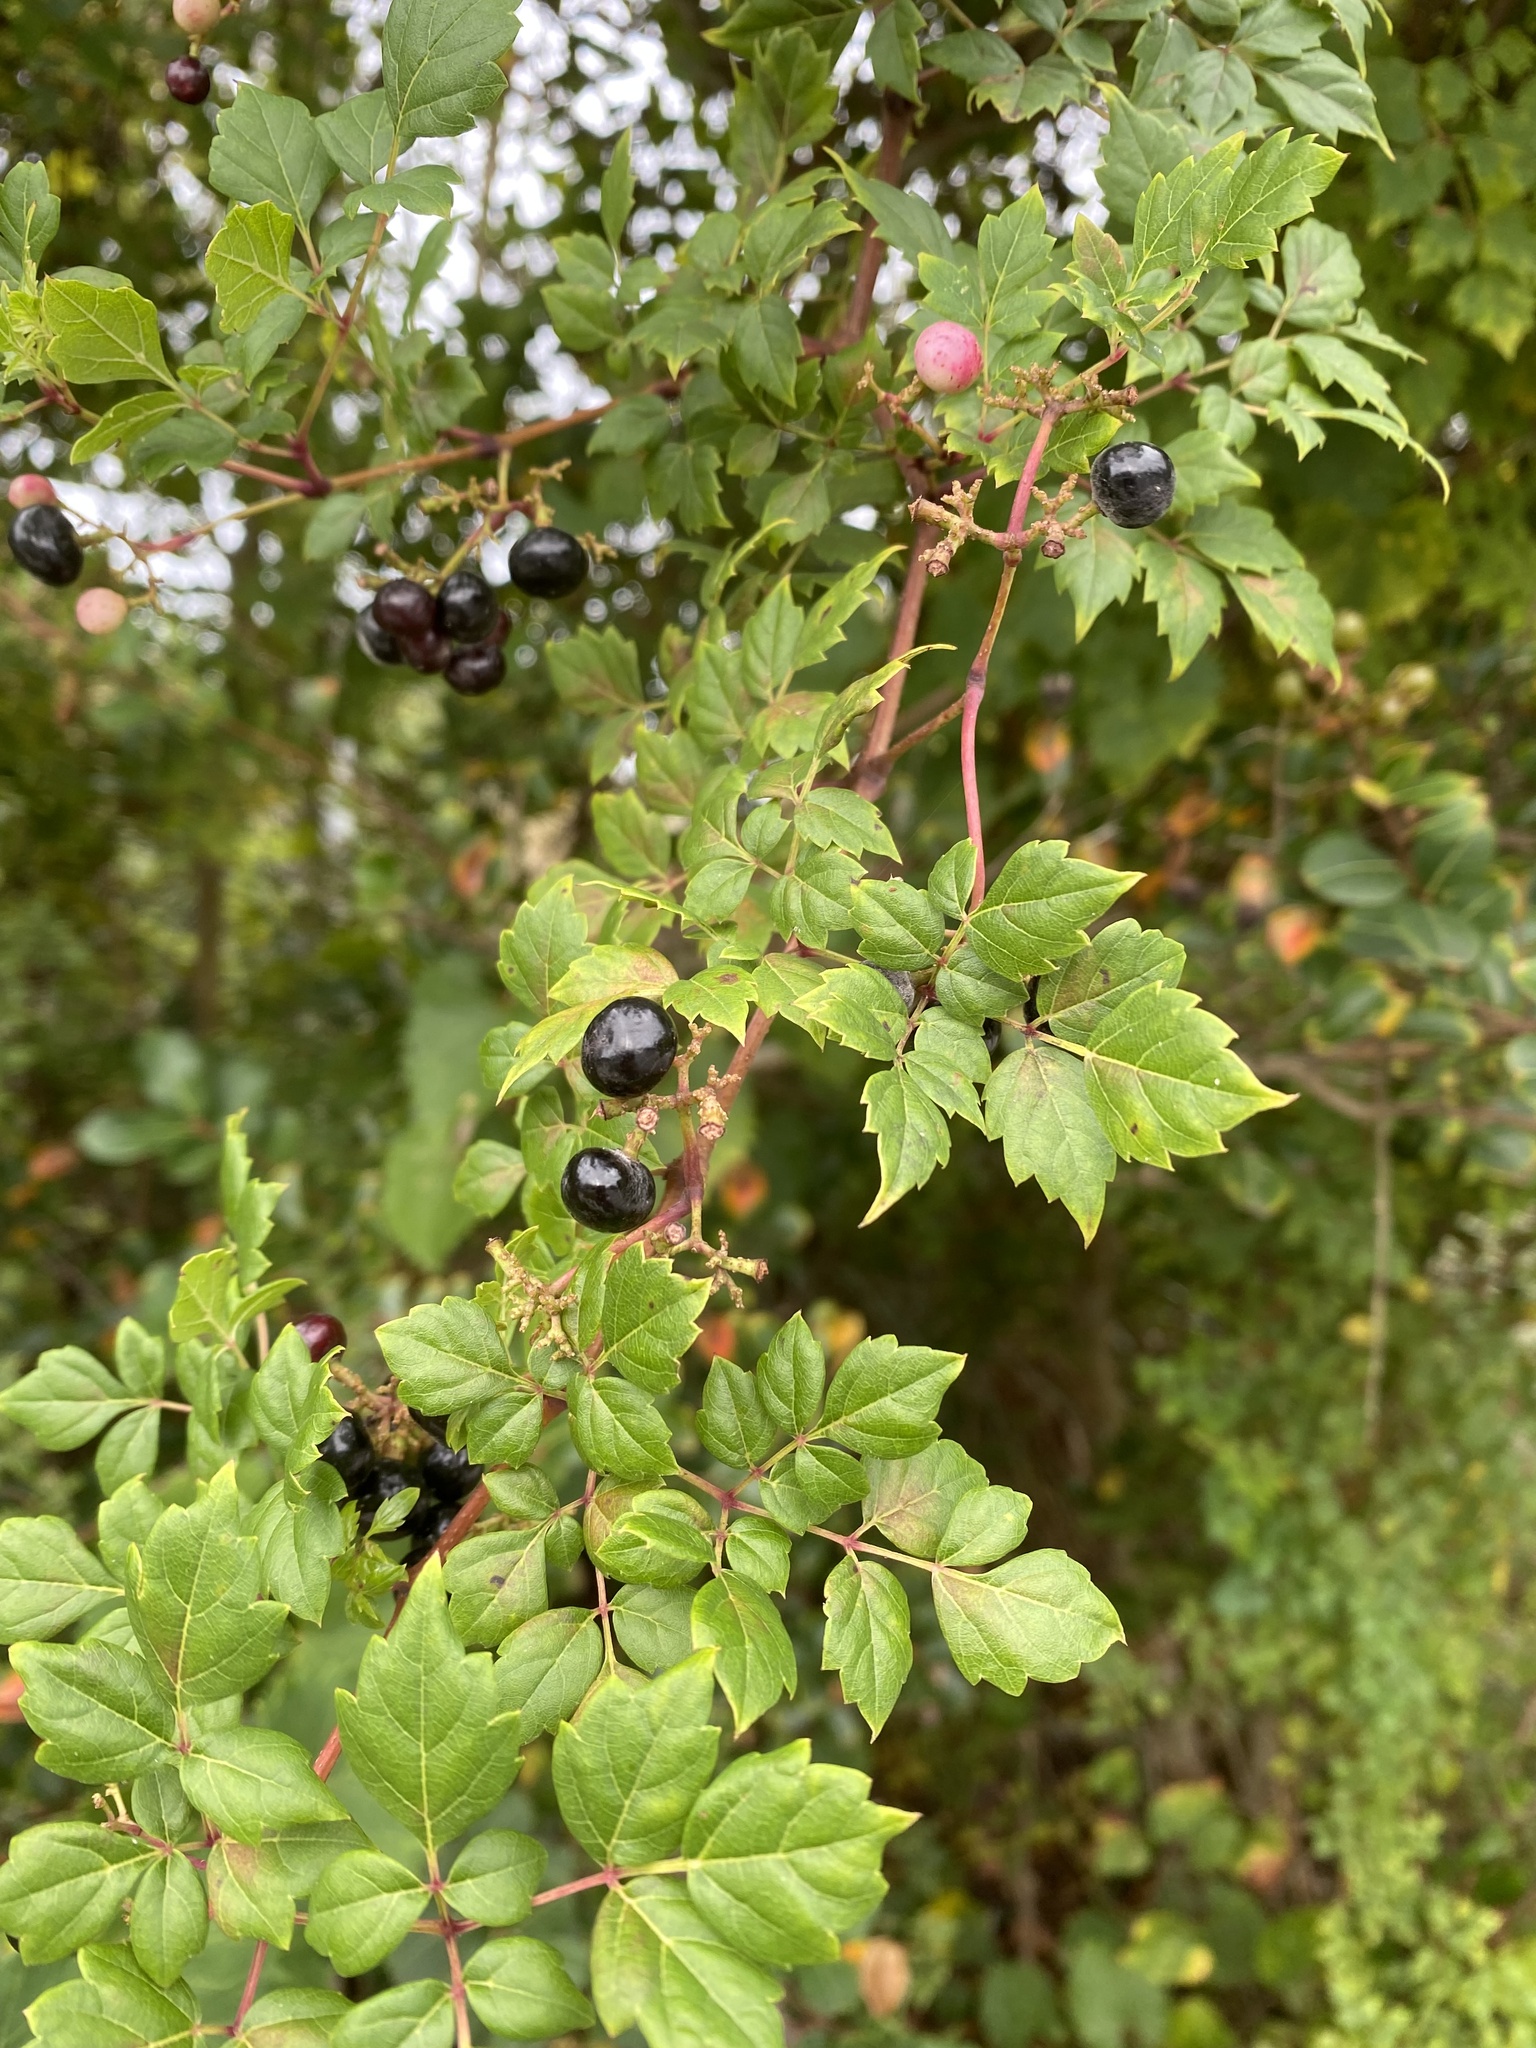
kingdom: Plantae
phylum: Tracheophyta
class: Magnoliopsida
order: Vitales
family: Vitaceae
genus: Nekemias
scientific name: Nekemias arborea
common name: Peppervine
